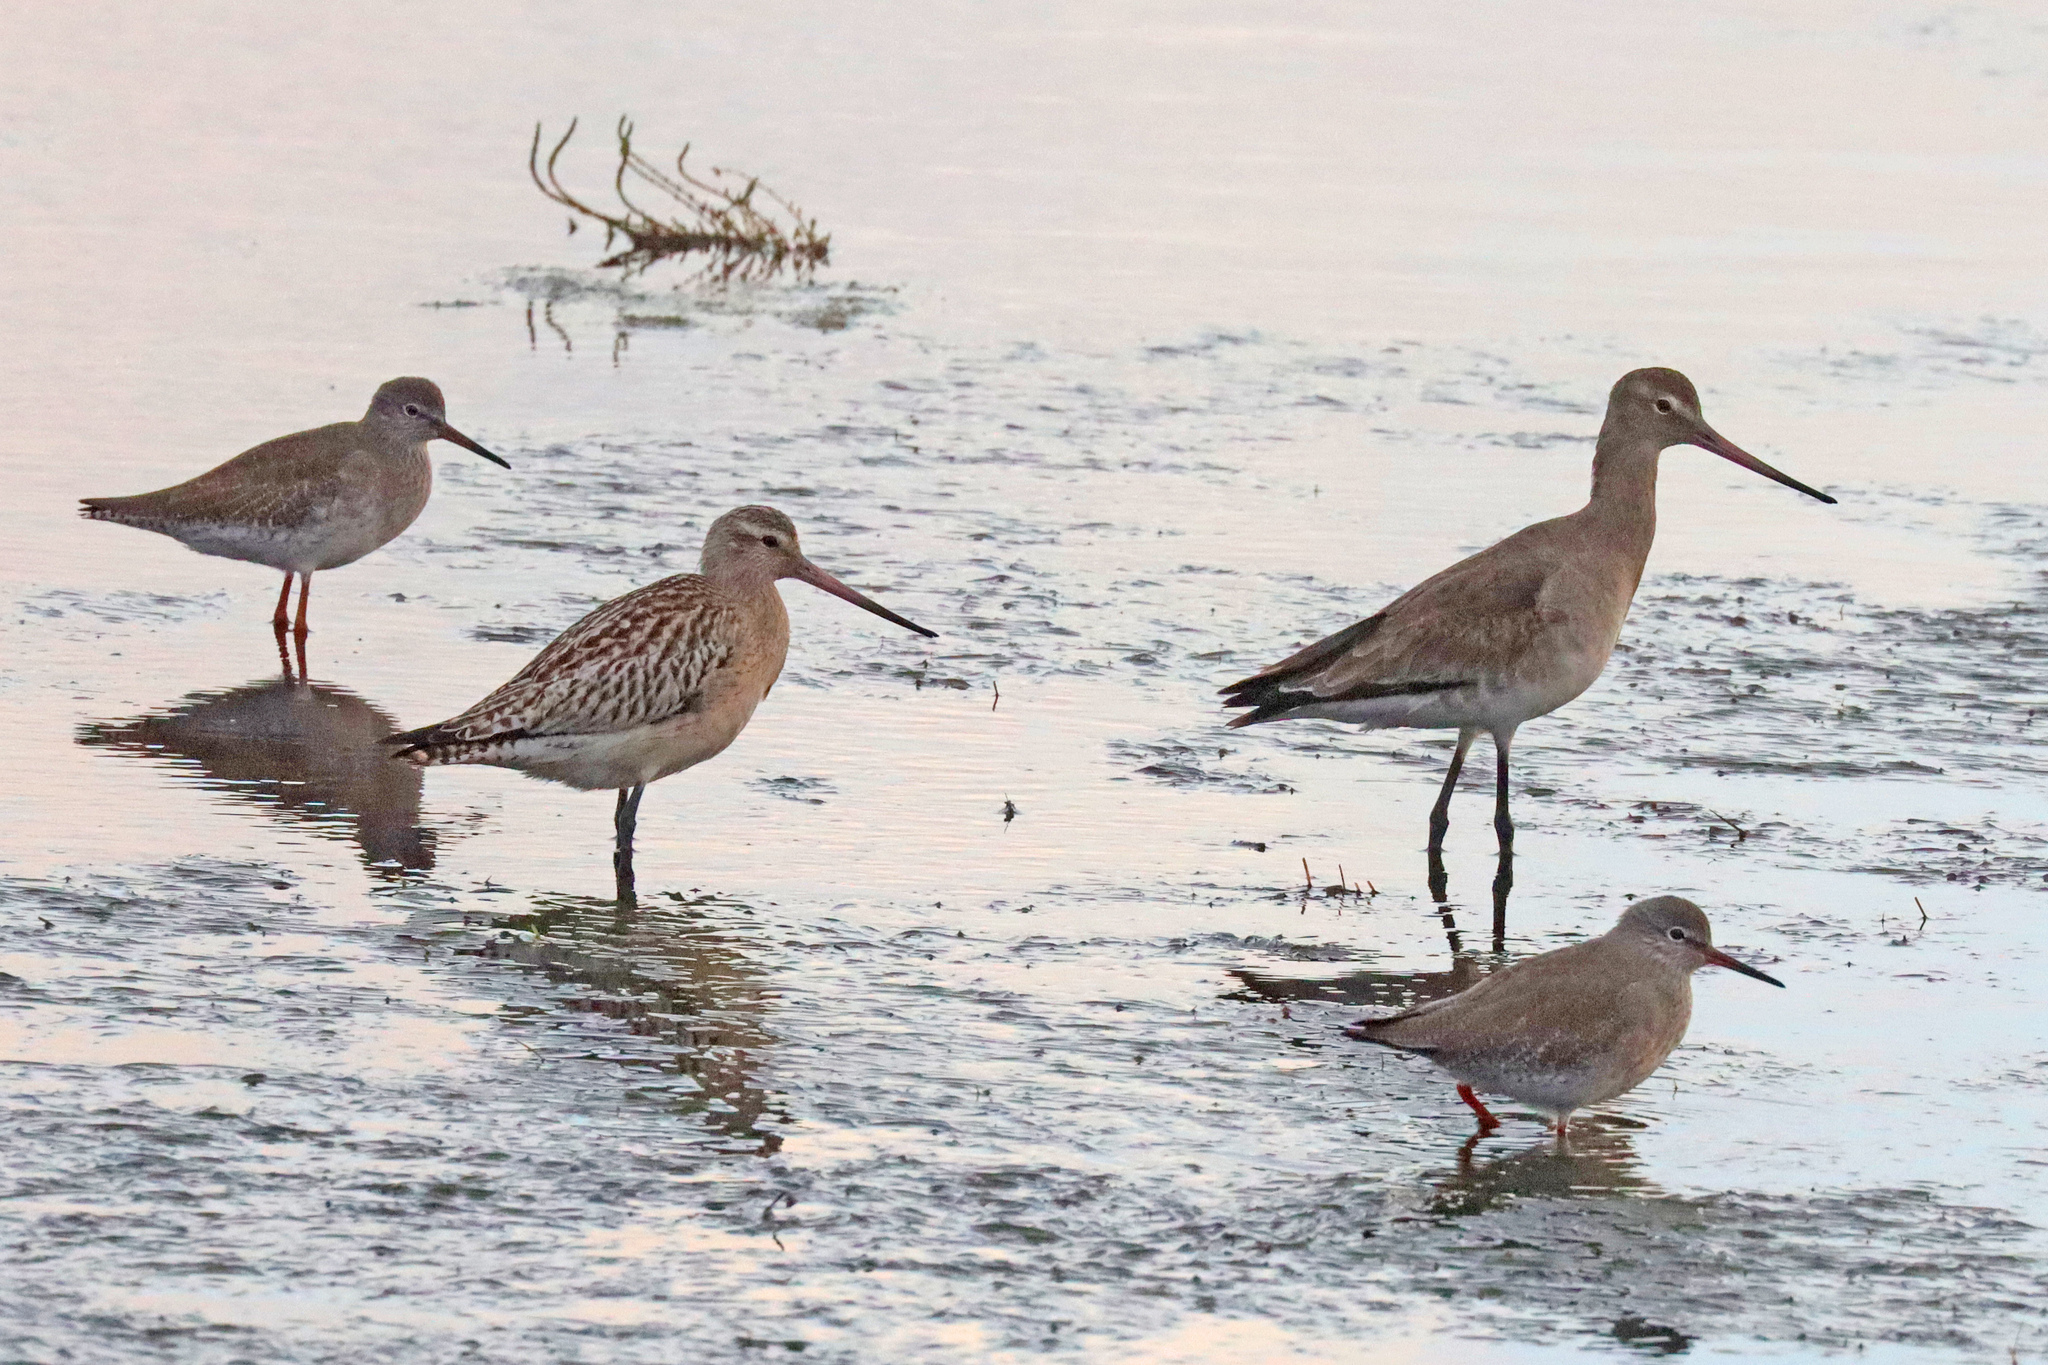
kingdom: Animalia
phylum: Chordata
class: Aves
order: Charadriiformes
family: Scolopacidae
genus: Tringa
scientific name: Tringa totanus
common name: Common redshank
